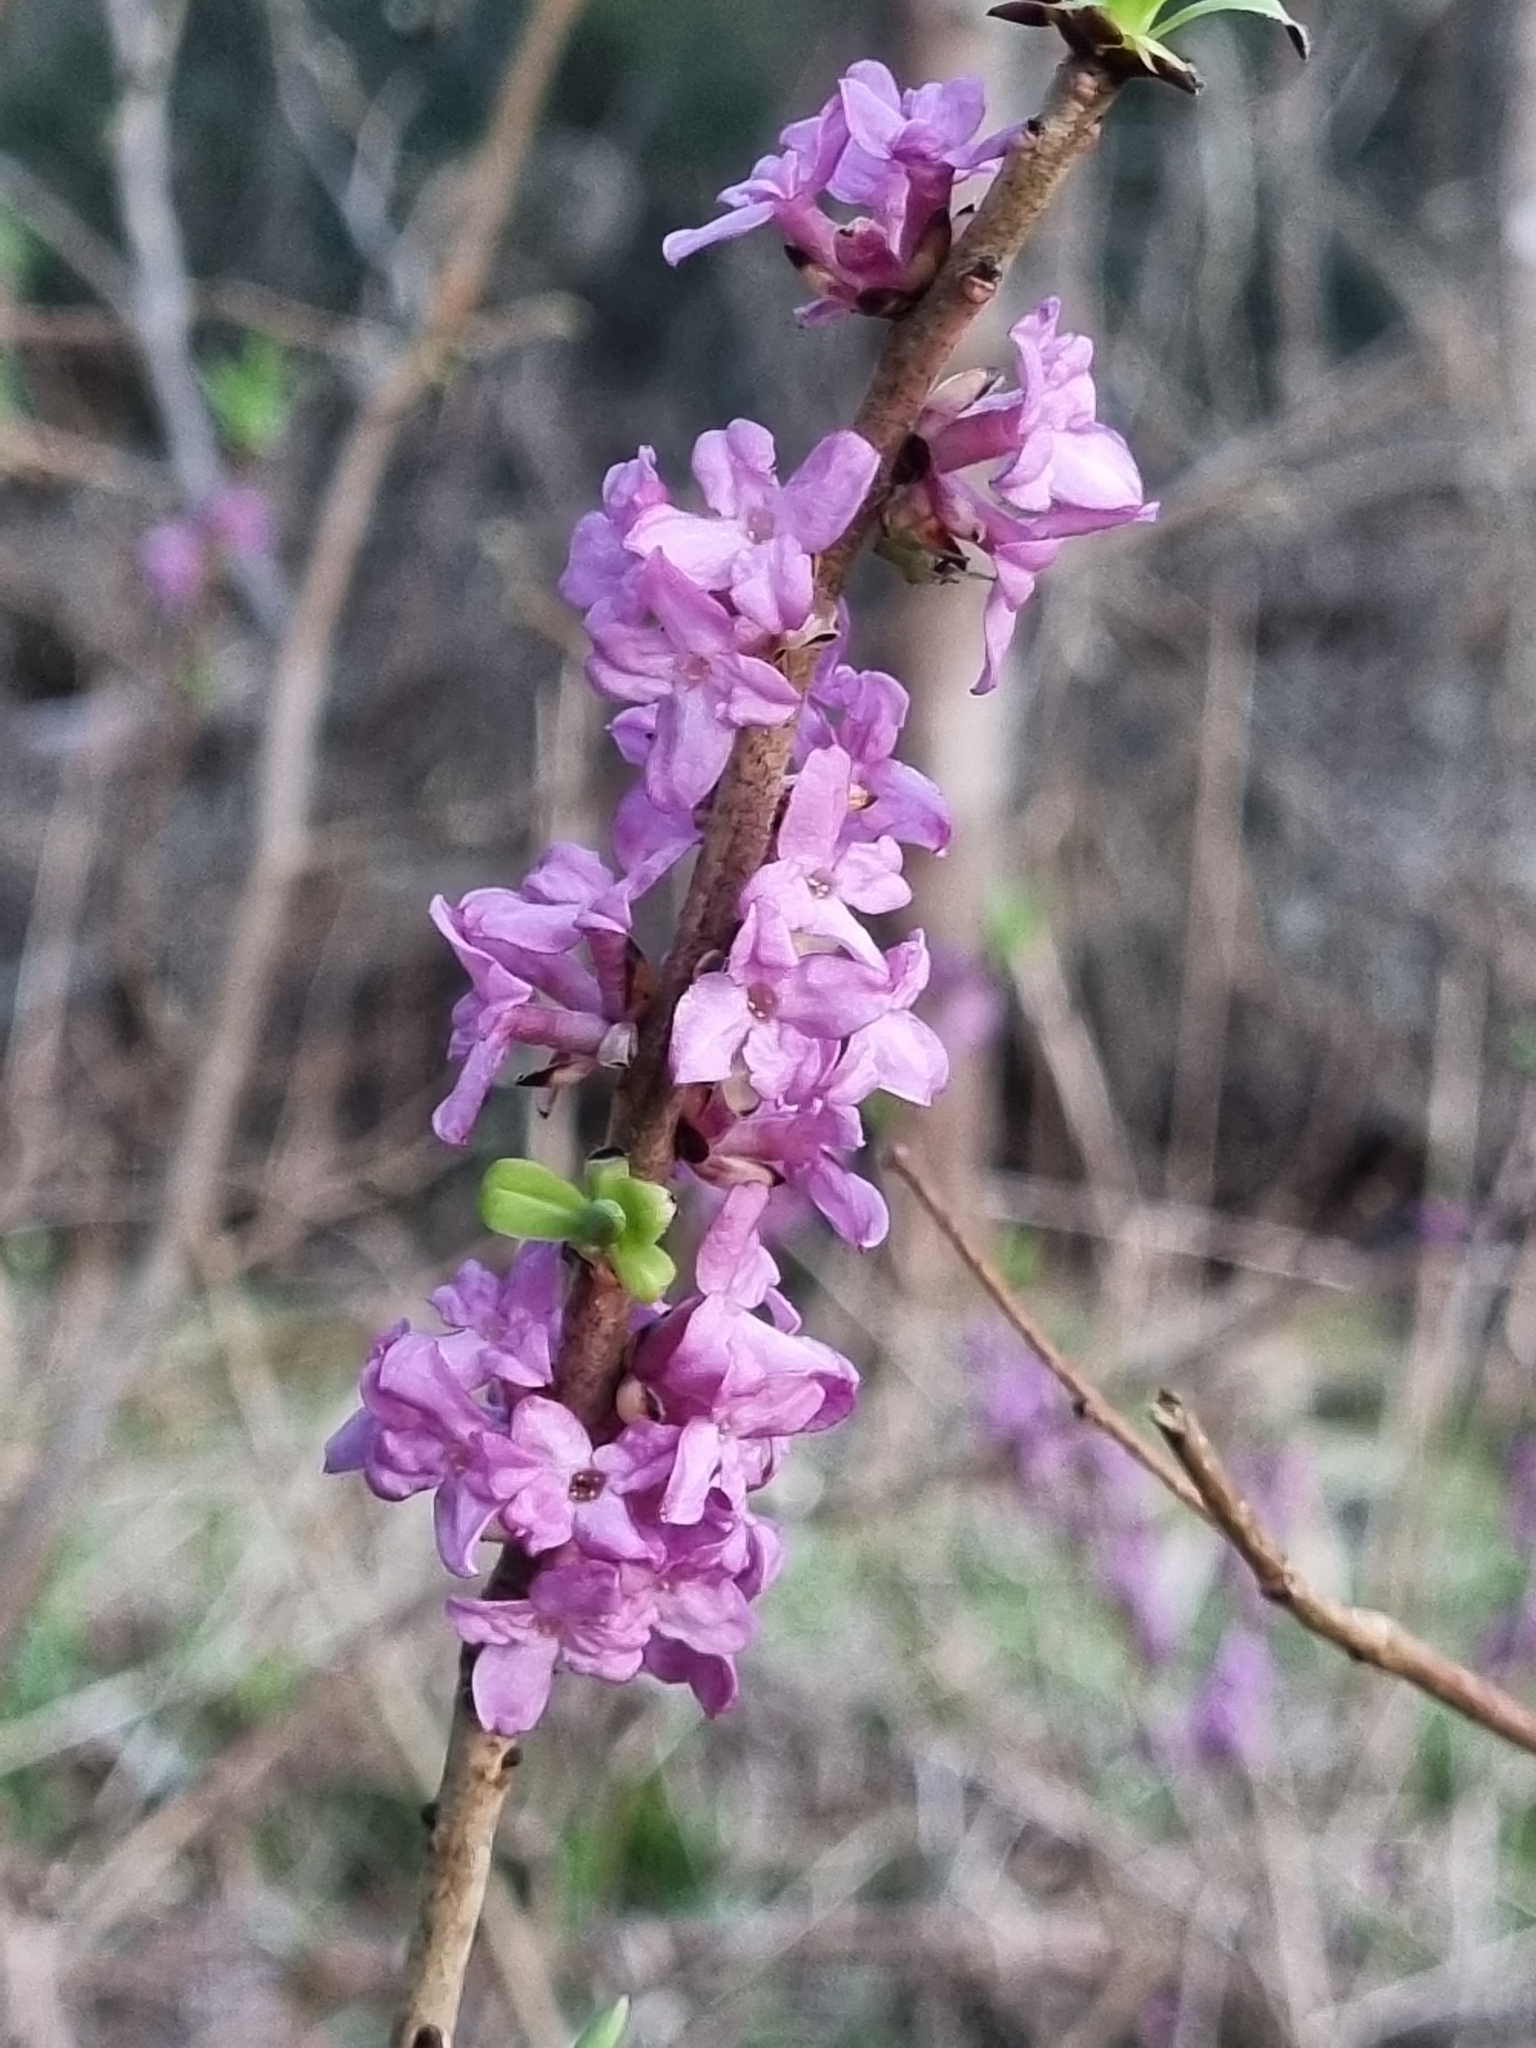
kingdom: Plantae
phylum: Tracheophyta
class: Magnoliopsida
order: Malvales
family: Thymelaeaceae
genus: Daphne
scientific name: Daphne mezereum
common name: Mezereon
